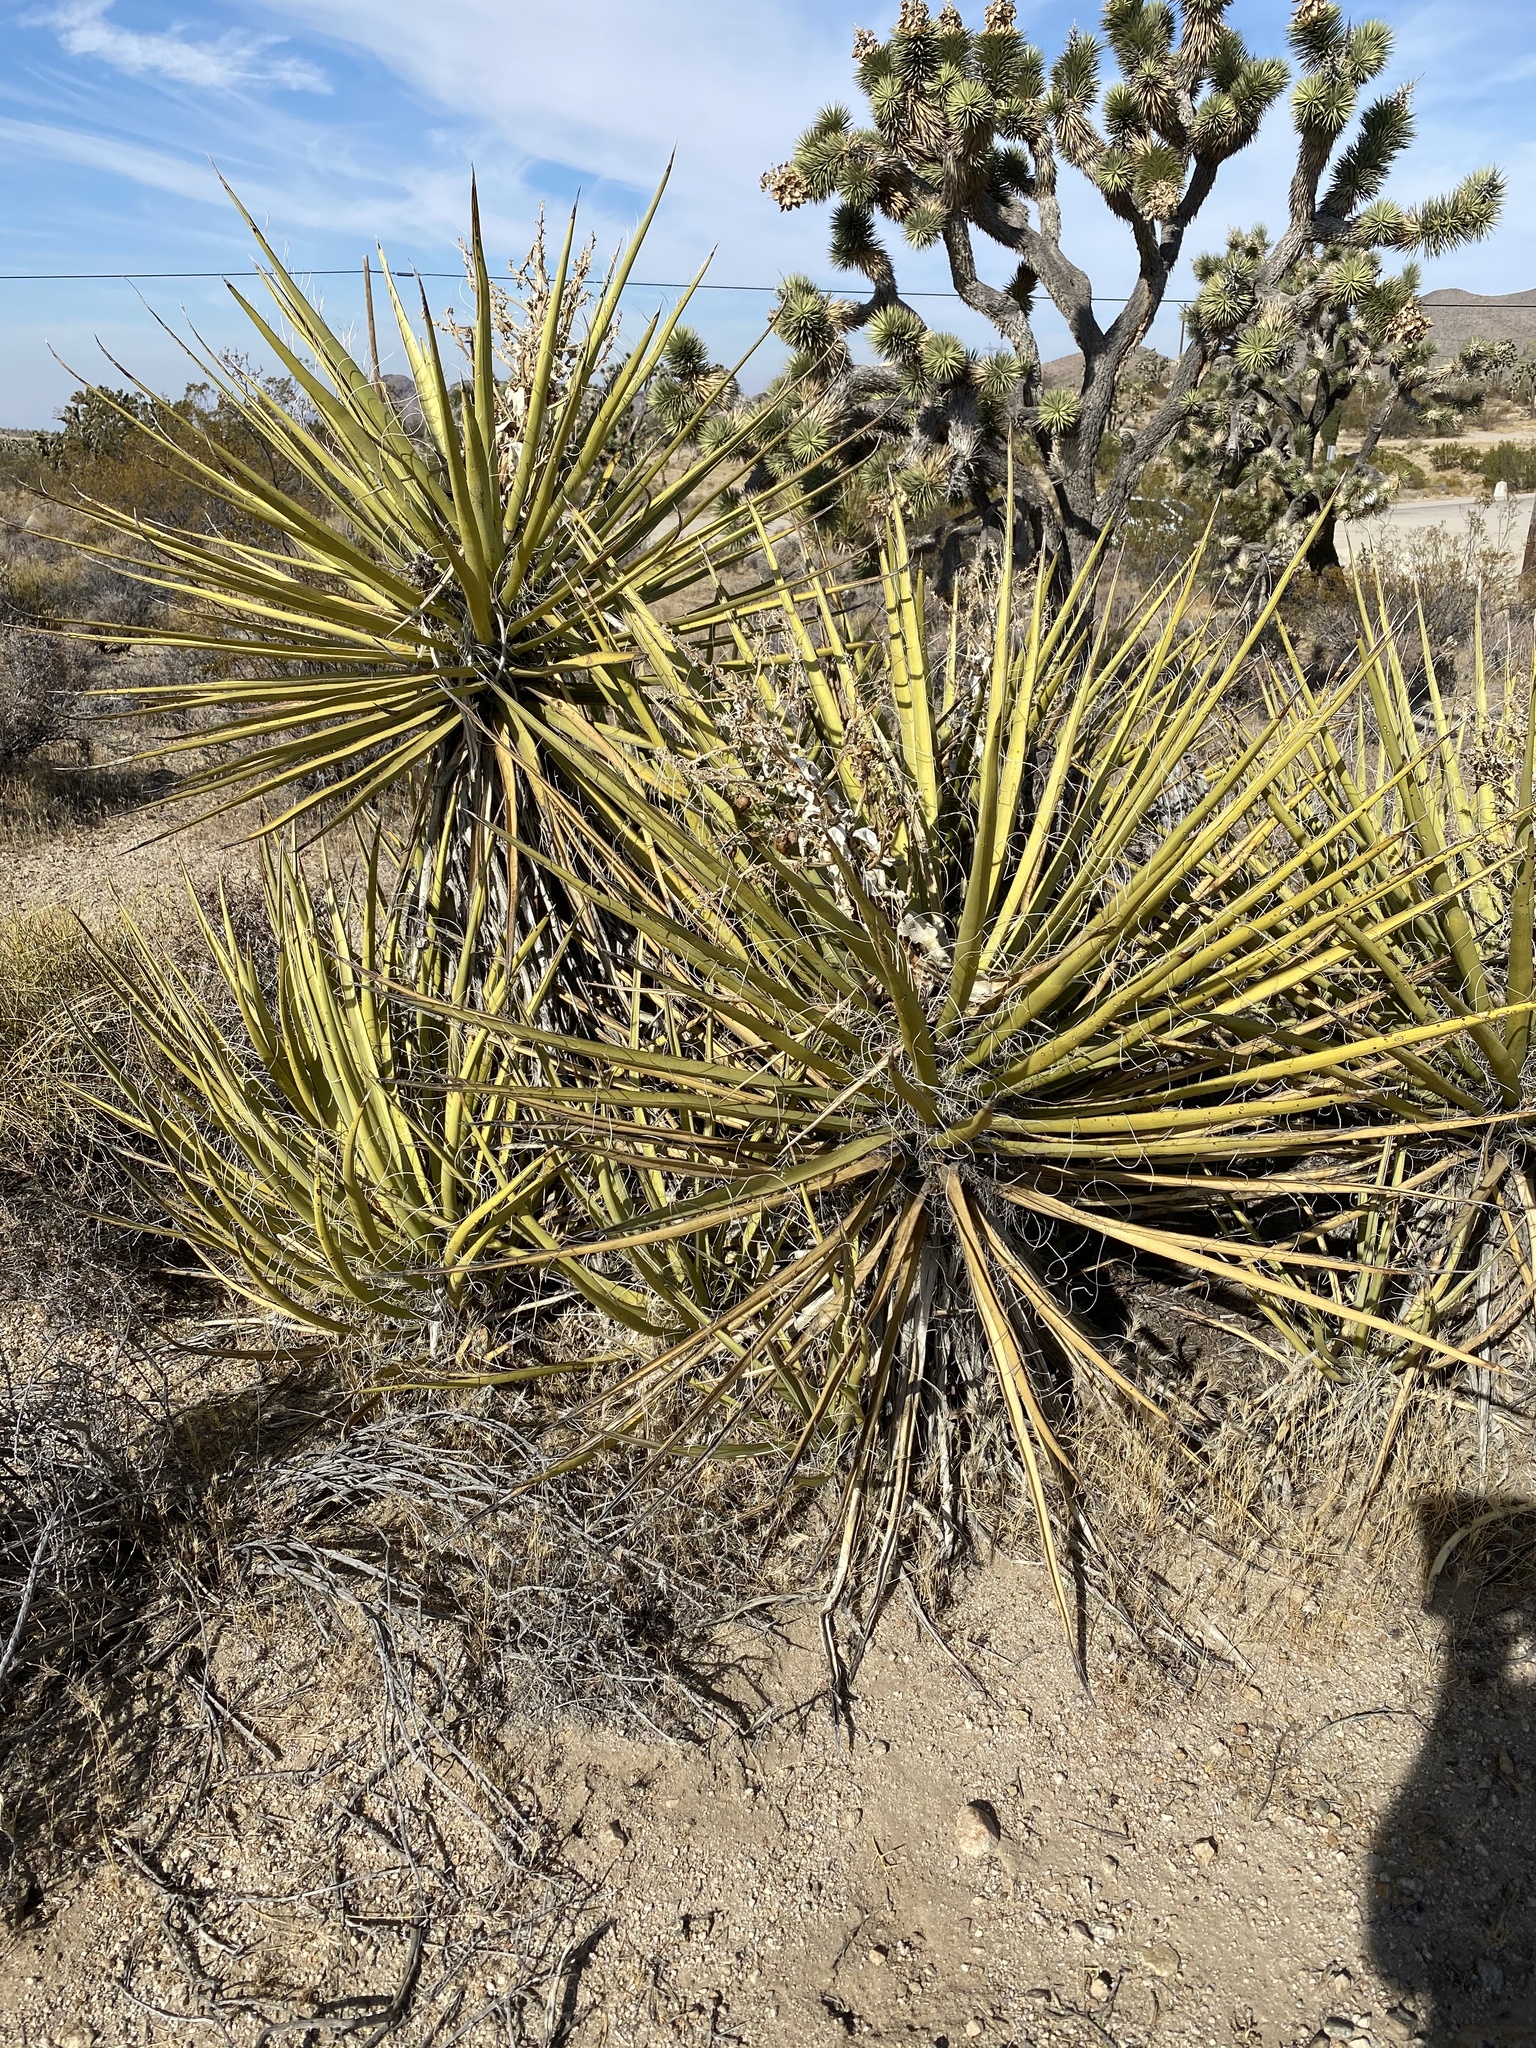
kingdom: Plantae
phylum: Tracheophyta
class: Liliopsida
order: Asparagales
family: Asparagaceae
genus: Yucca
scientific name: Yucca schidigera
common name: Mojave yucca
